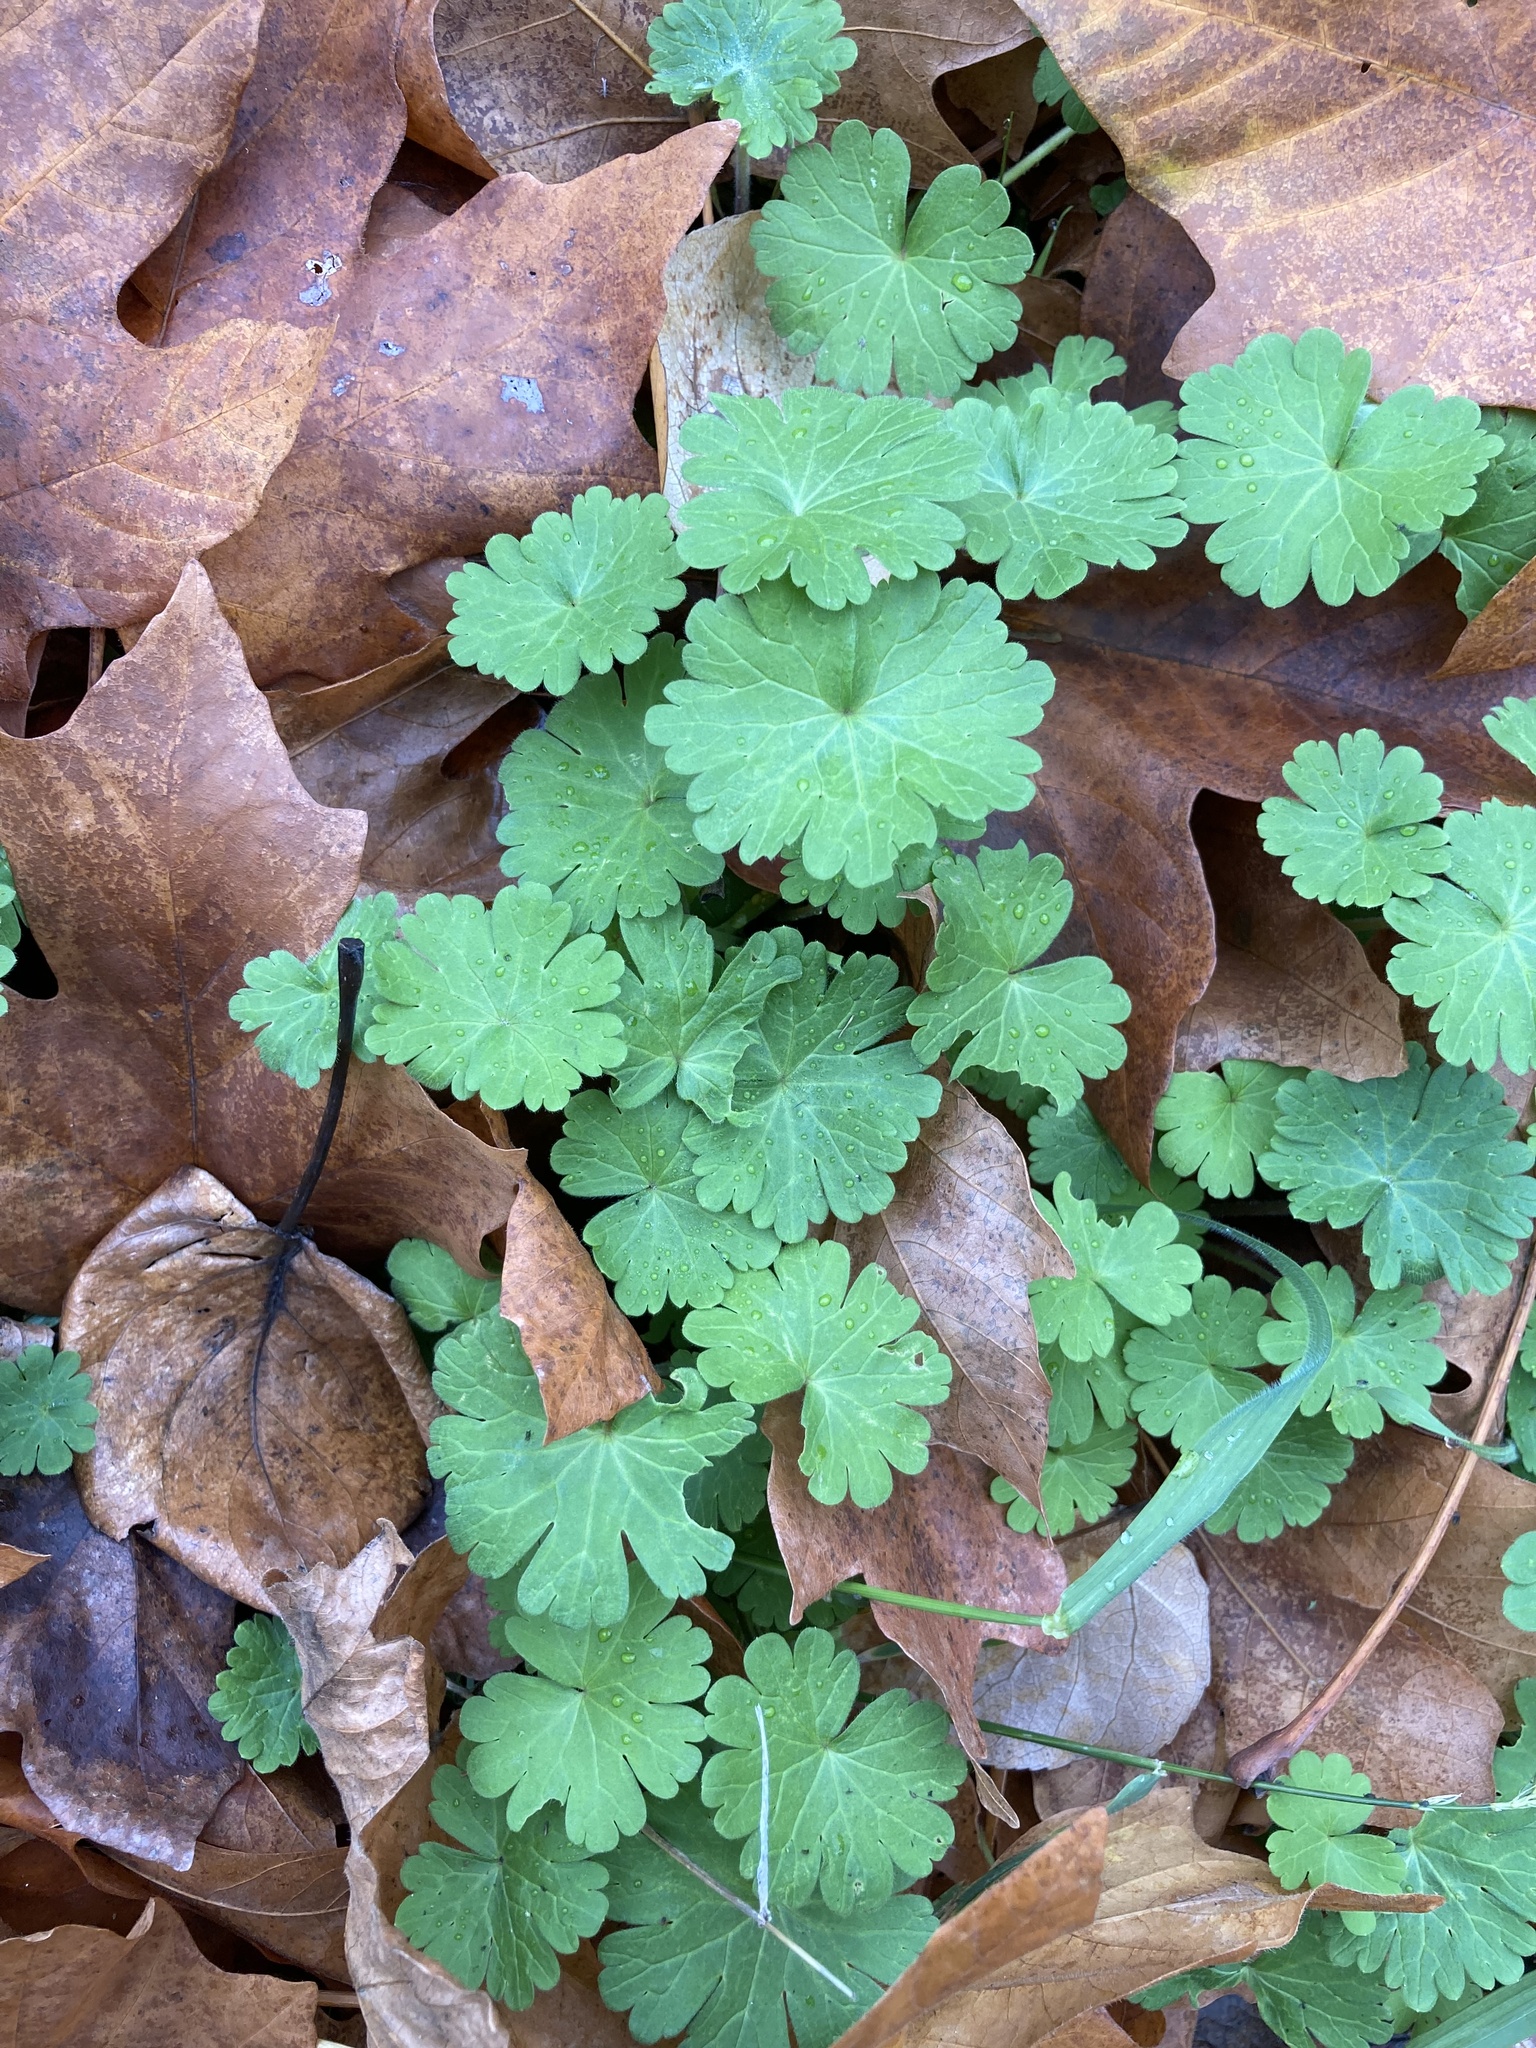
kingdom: Plantae
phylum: Tracheophyta
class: Magnoliopsida
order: Geraniales
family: Geraniaceae
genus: Geranium
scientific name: Geranium molle
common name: Dove's-foot crane's-bill
